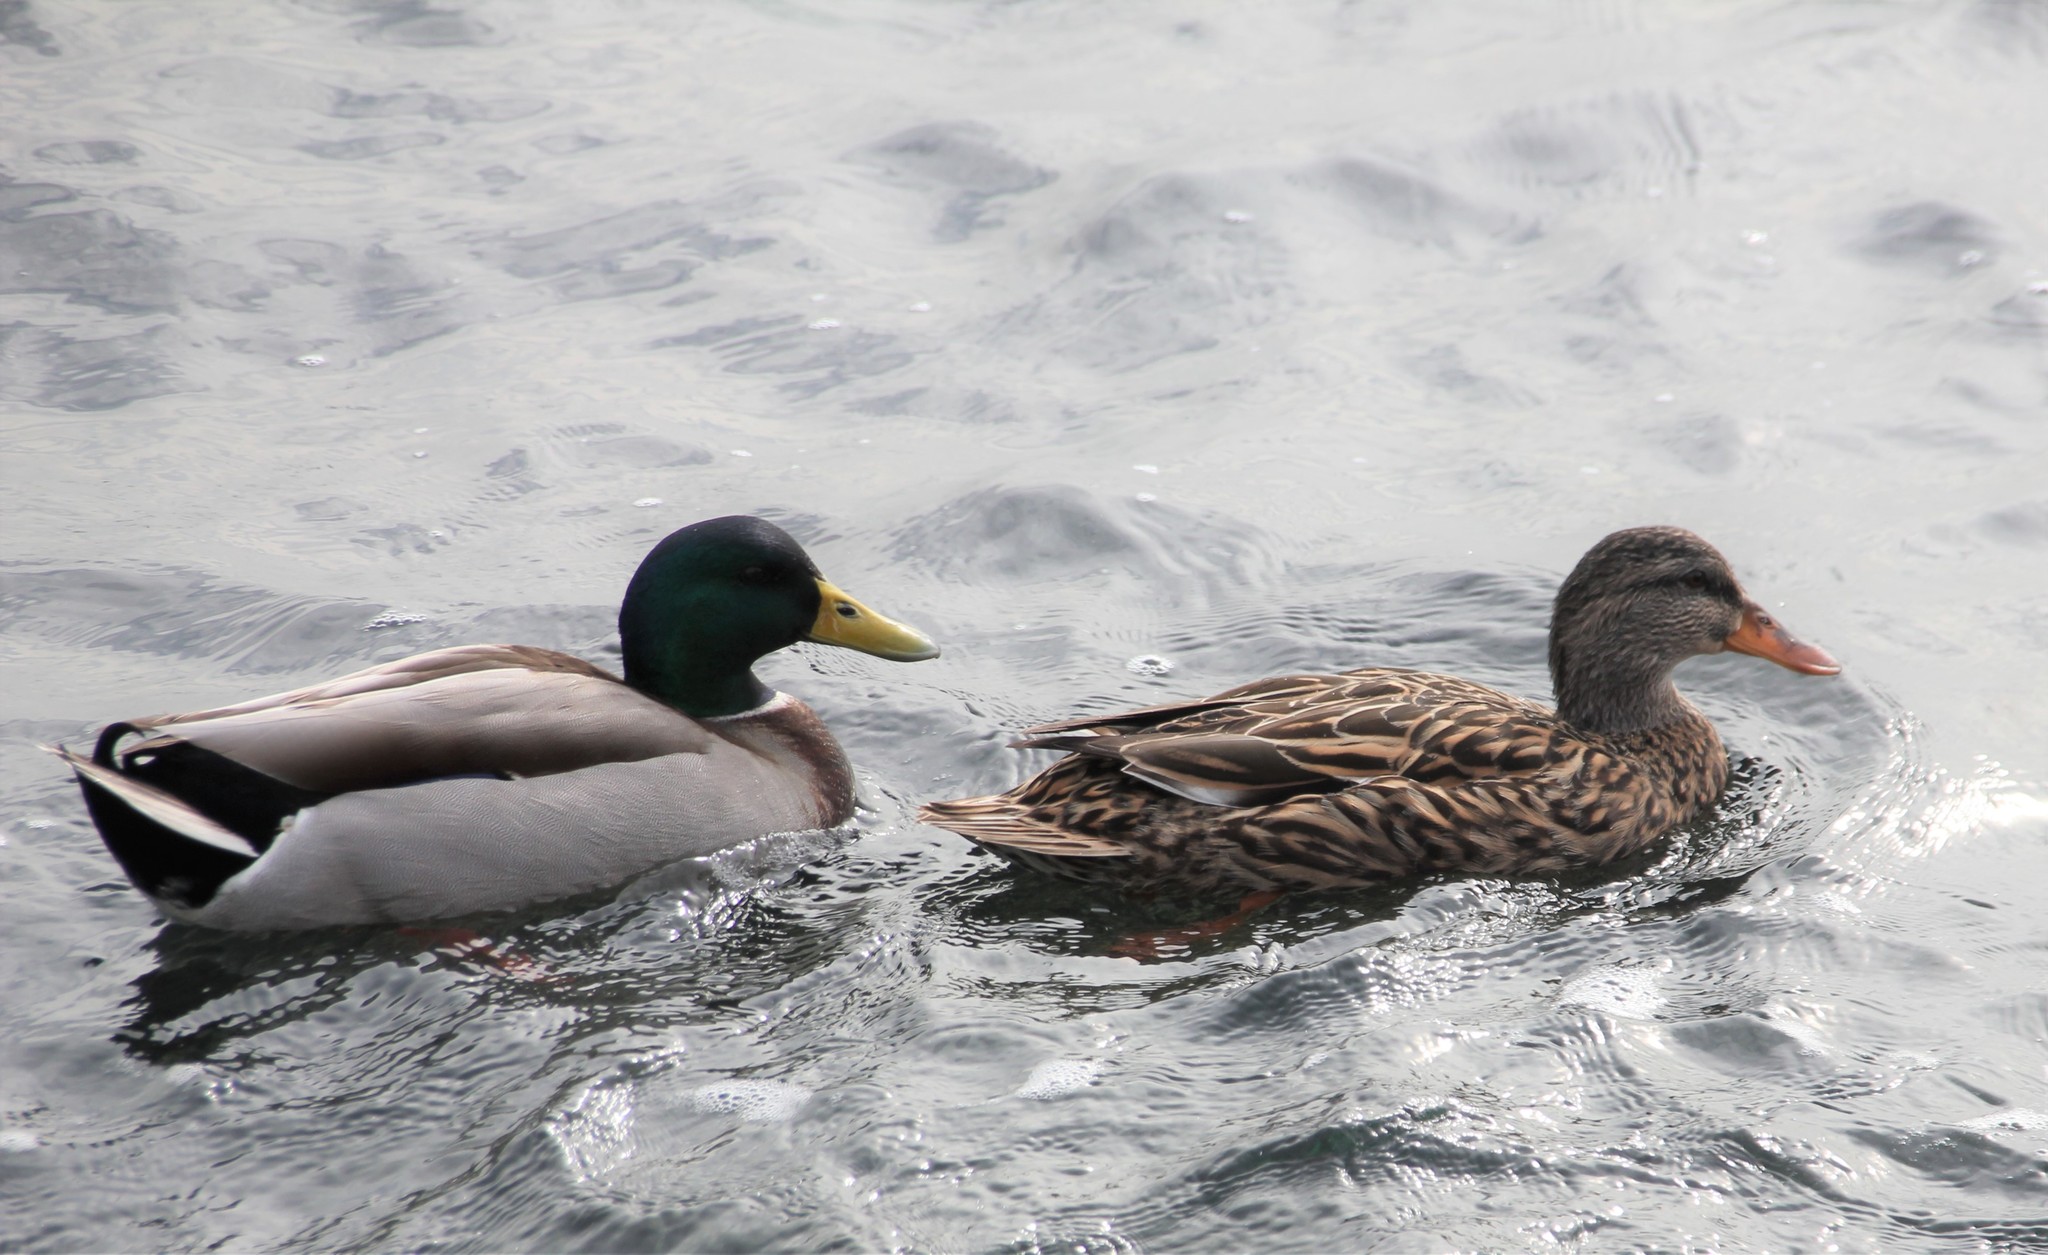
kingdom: Animalia
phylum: Chordata
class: Aves
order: Anseriformes
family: Anatidae
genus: Anas
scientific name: Anas platyrhynchos
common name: Mallard
